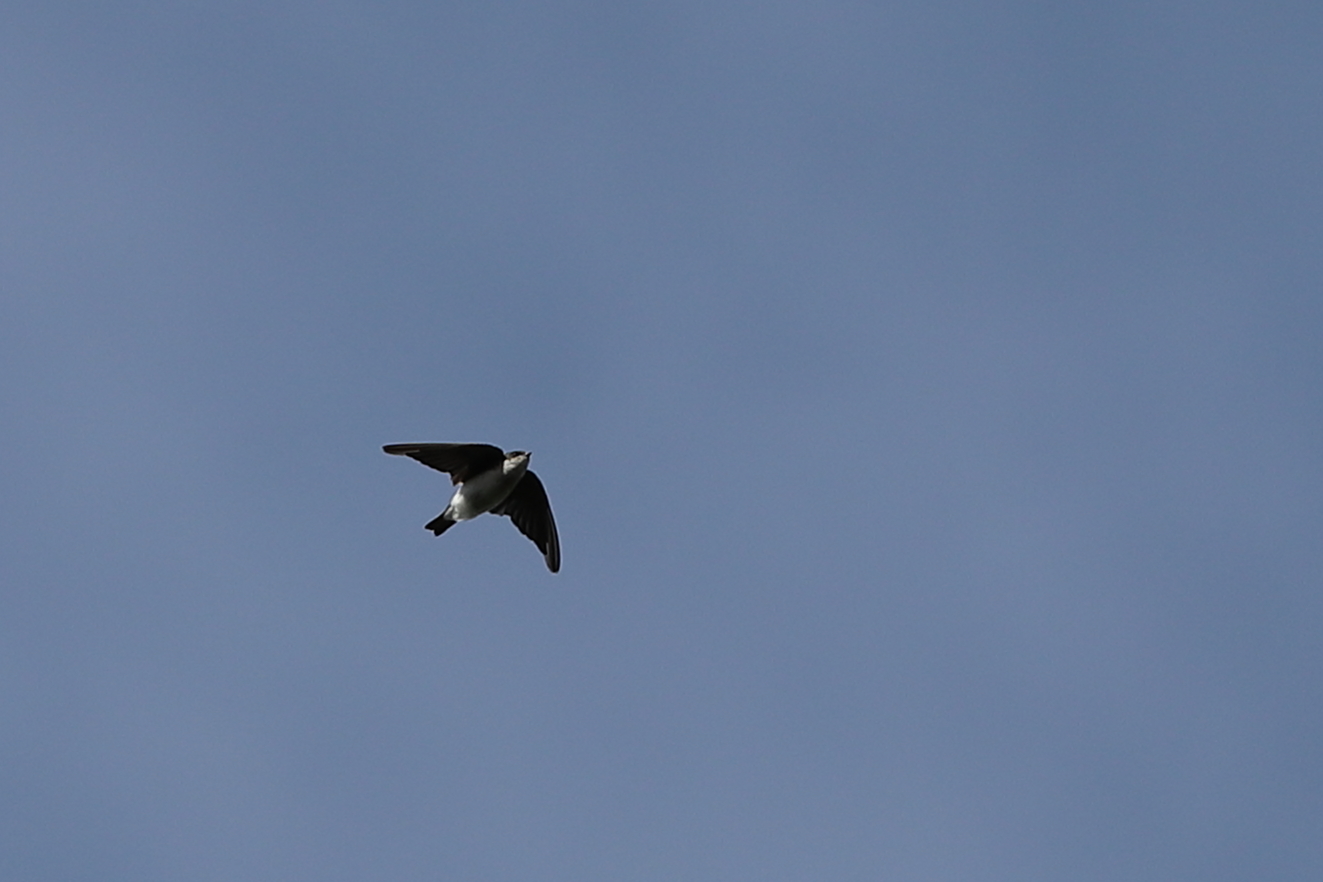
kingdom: Animalia
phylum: Chordata
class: Aves
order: Passeriformes
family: Hirundinidae
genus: Tachycineta
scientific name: Tachycineta bicolor
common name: Tree swallow
